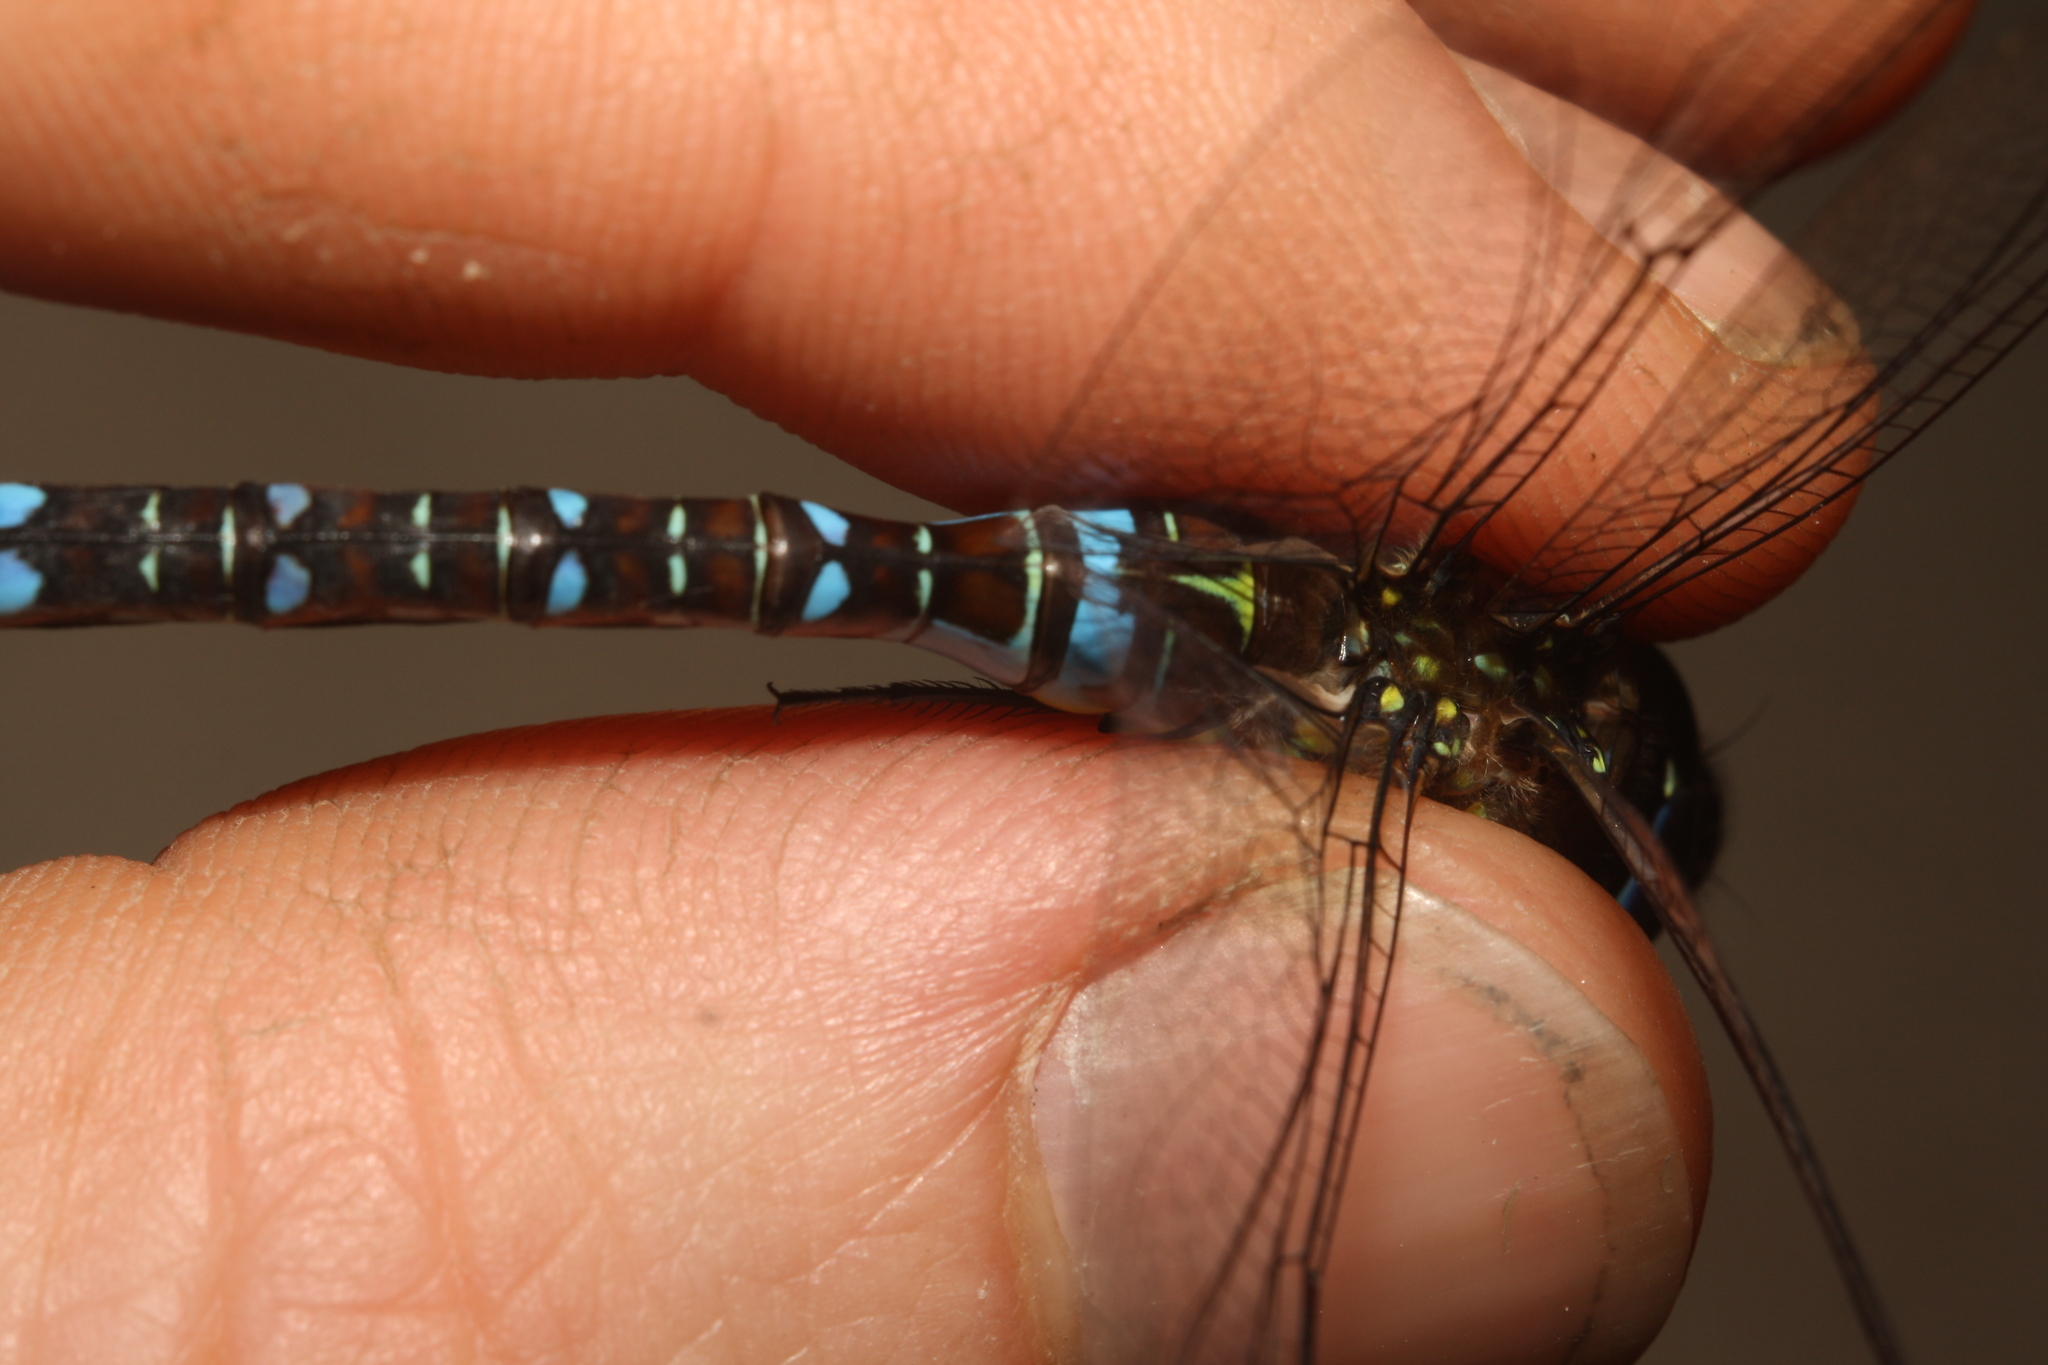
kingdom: Animalia
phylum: Arthropoda
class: Insecta
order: Odonata
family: Aeshnidae
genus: Aeshna
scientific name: Aeshna mixta
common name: Migrant hawker
